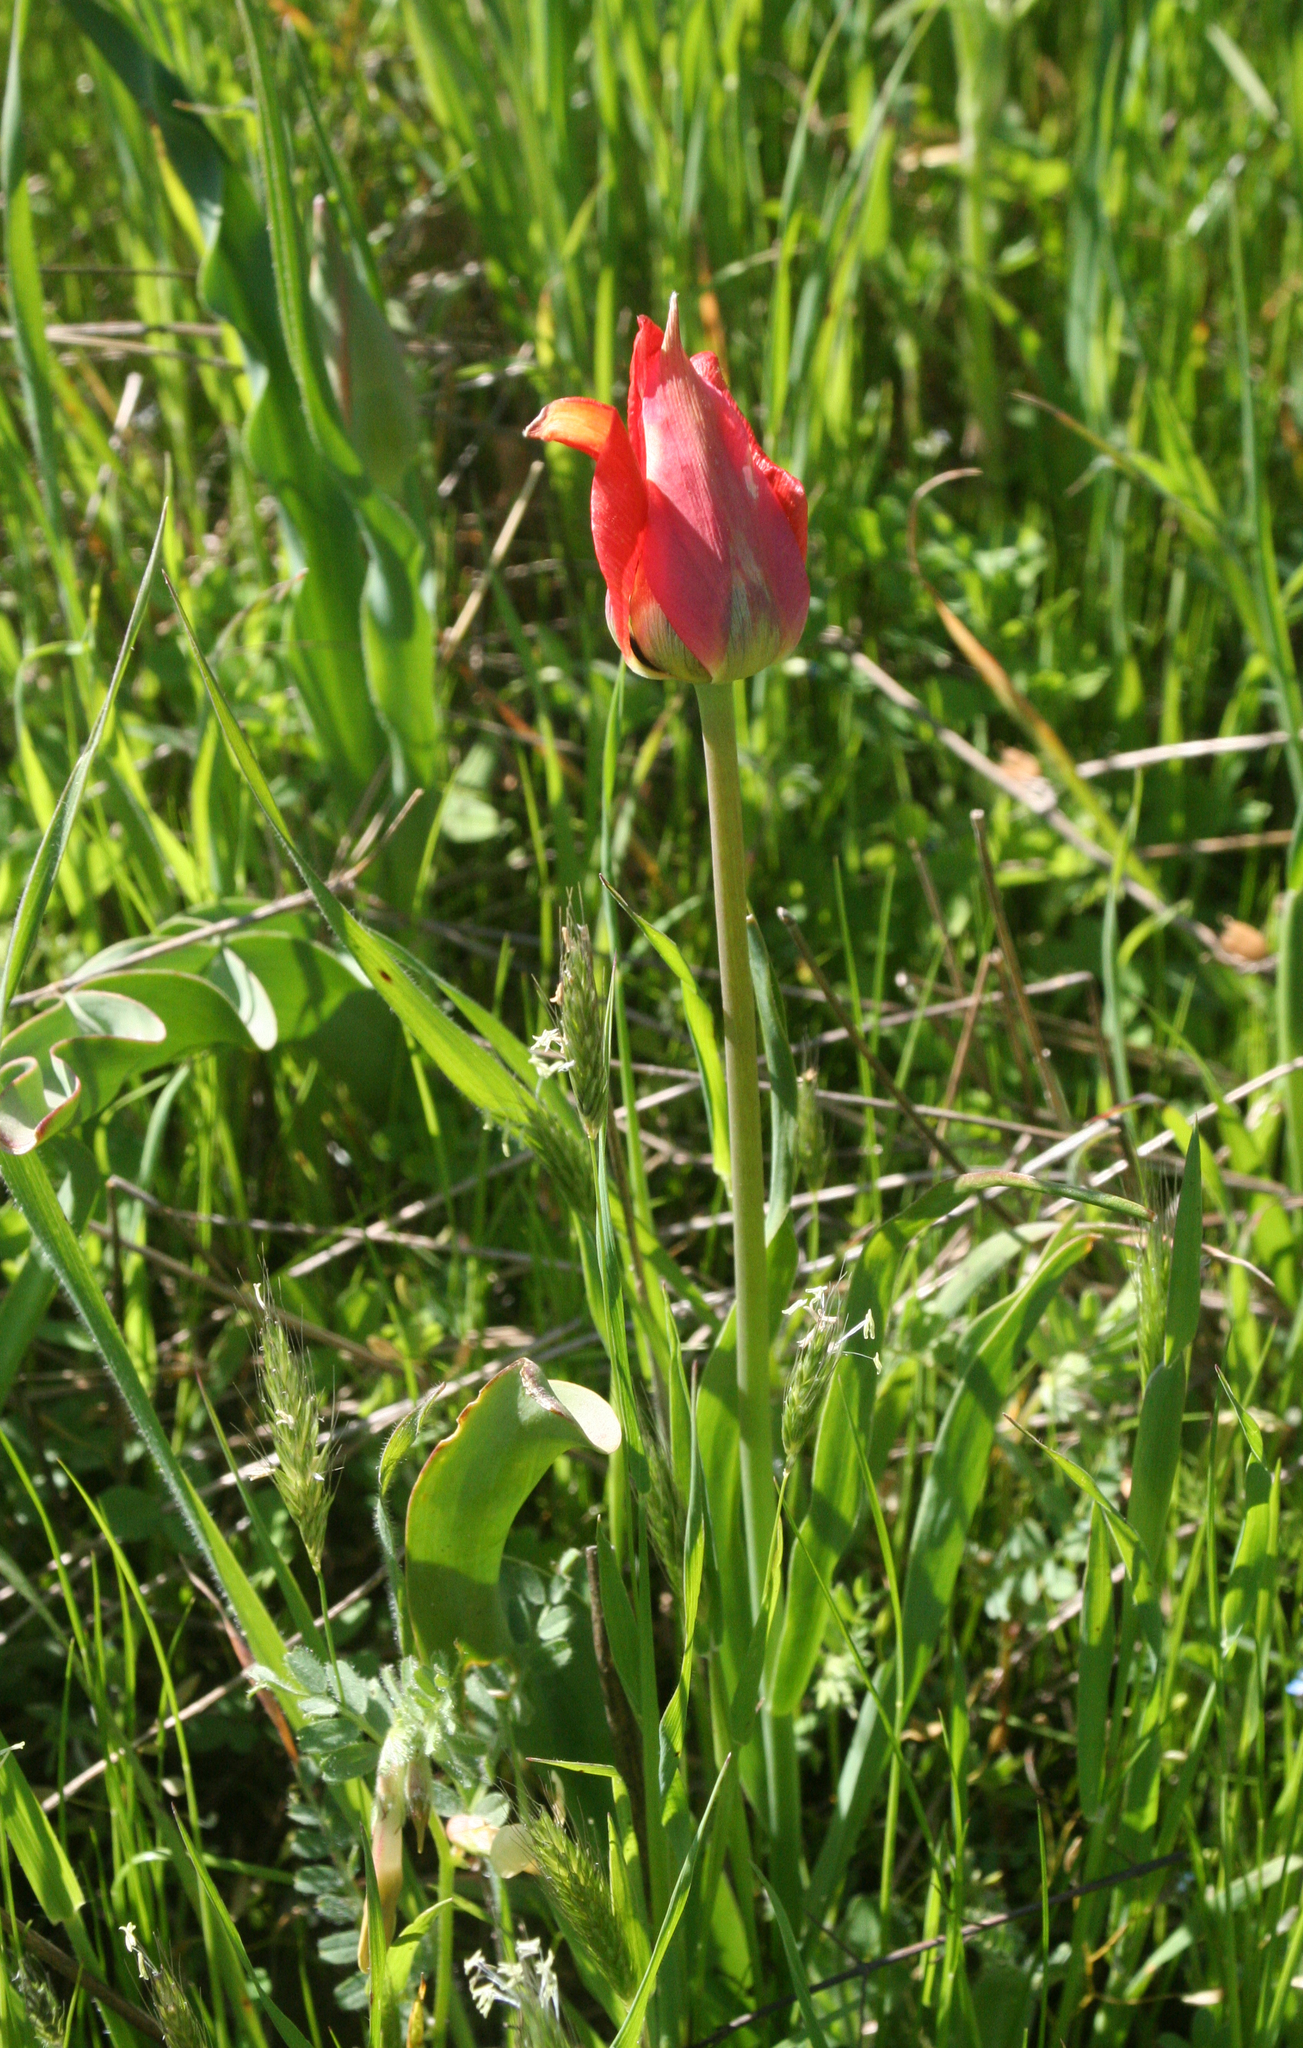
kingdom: Plantae
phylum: Tracheophyta
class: Liliopsida
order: Liliales
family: Liliaceae
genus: Tulipa
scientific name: Tulipa agenensis
